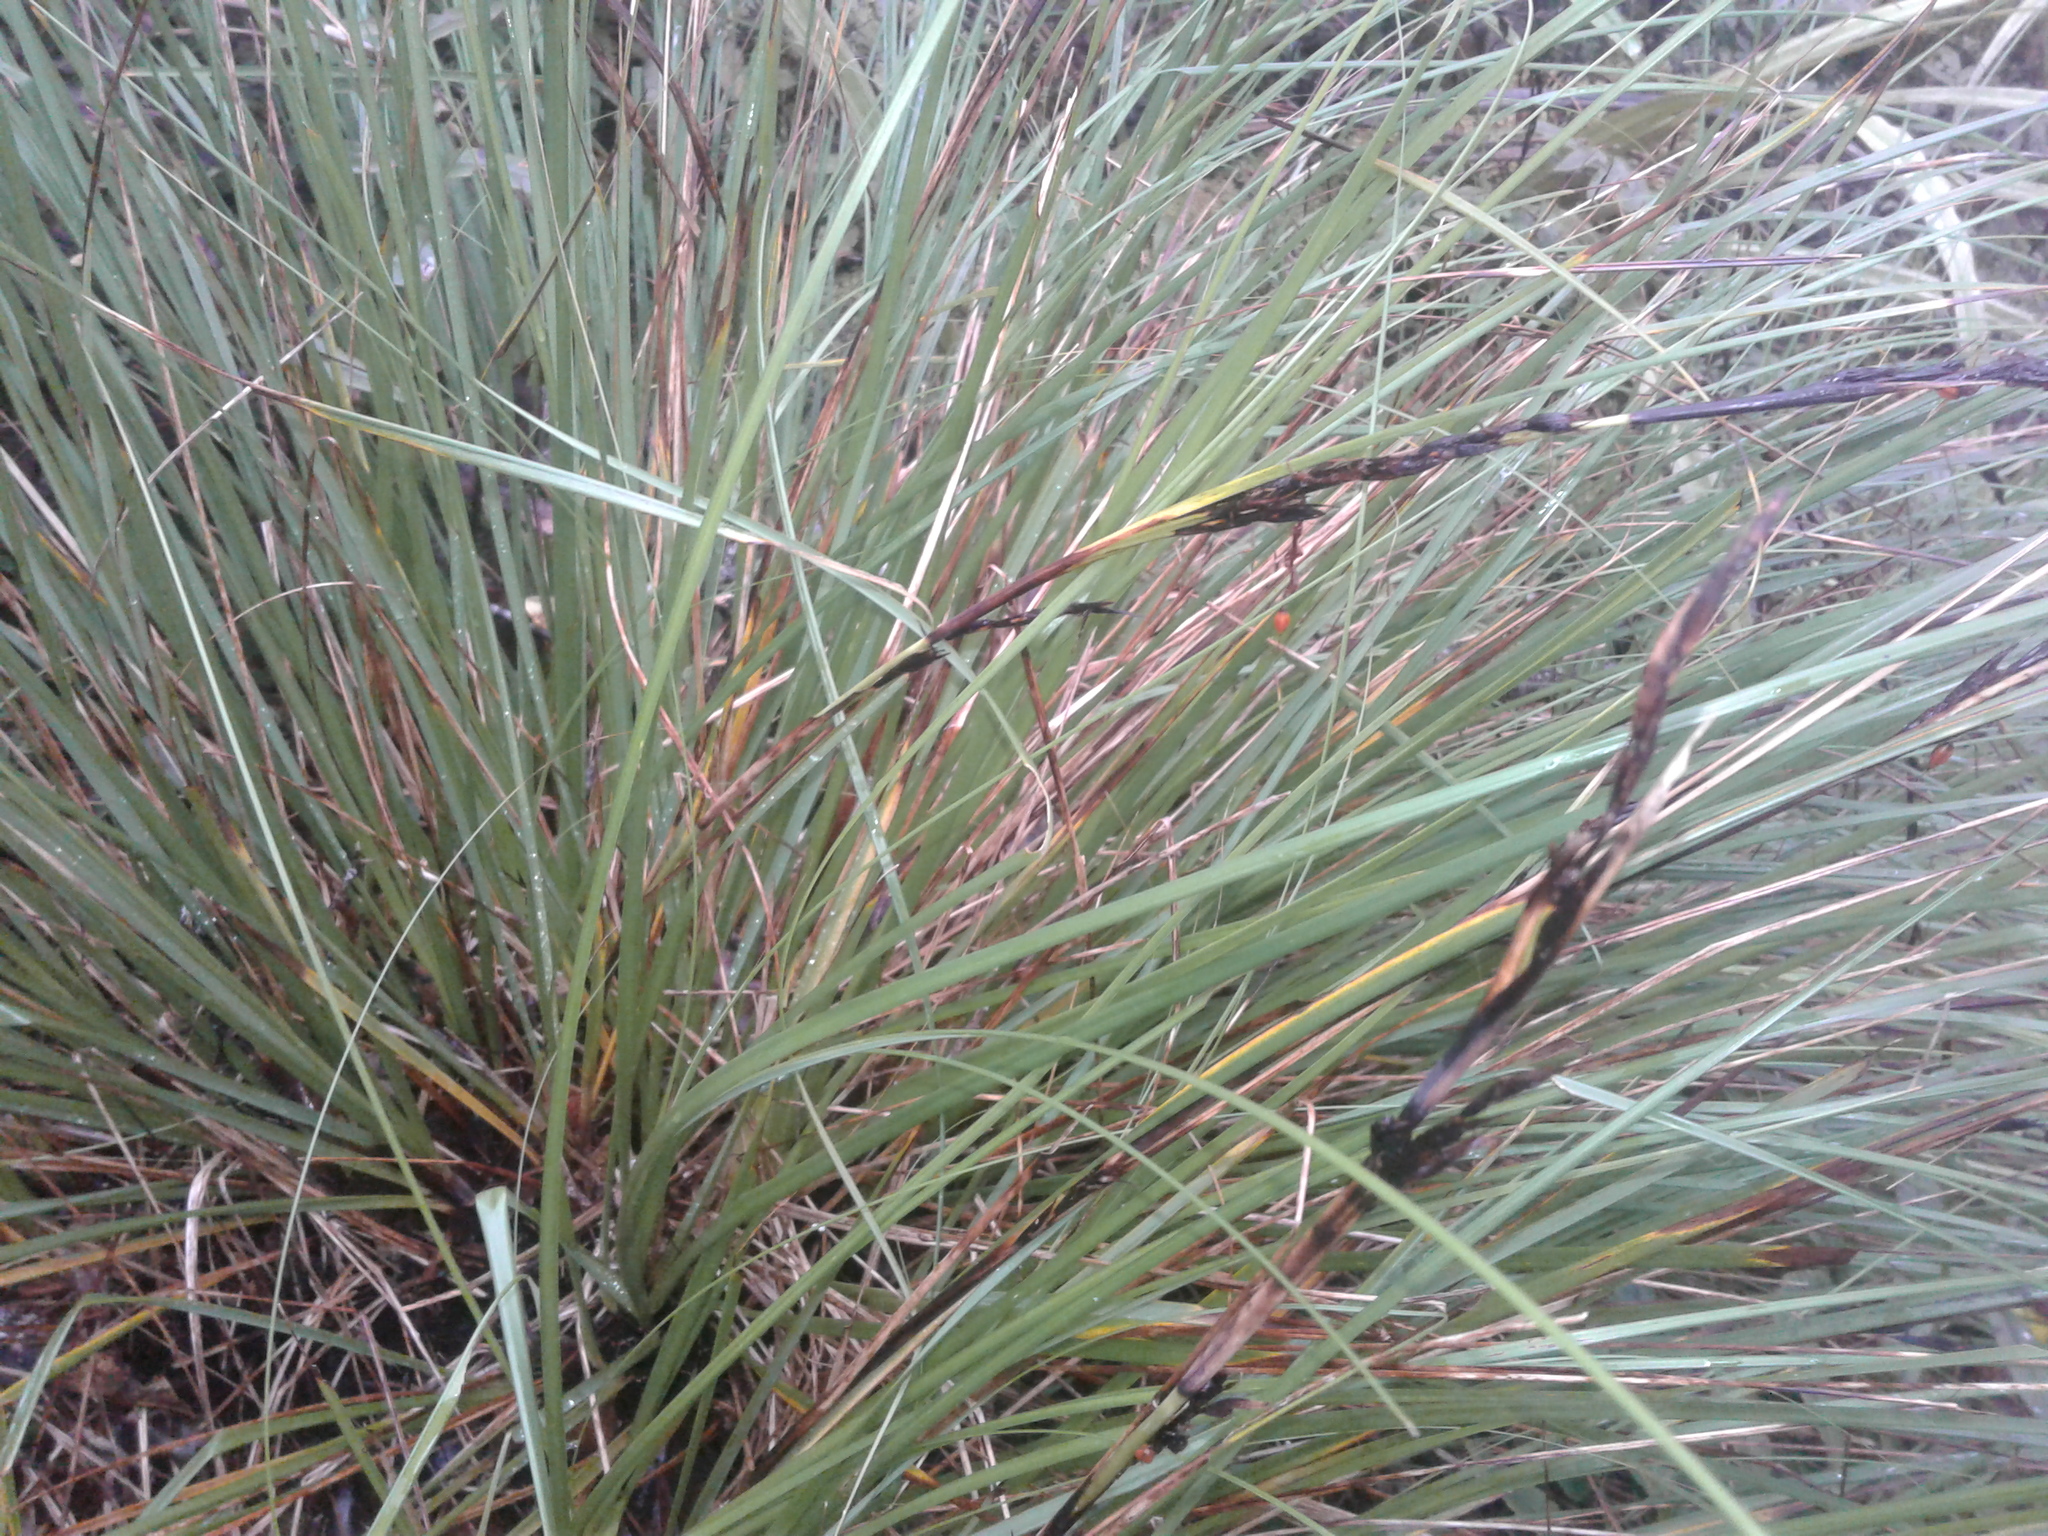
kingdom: Plantae
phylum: Tracheophyta
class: Liliopsida
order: Poales
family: Cyperaceae
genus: Gahnia
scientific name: Gahnia procera
